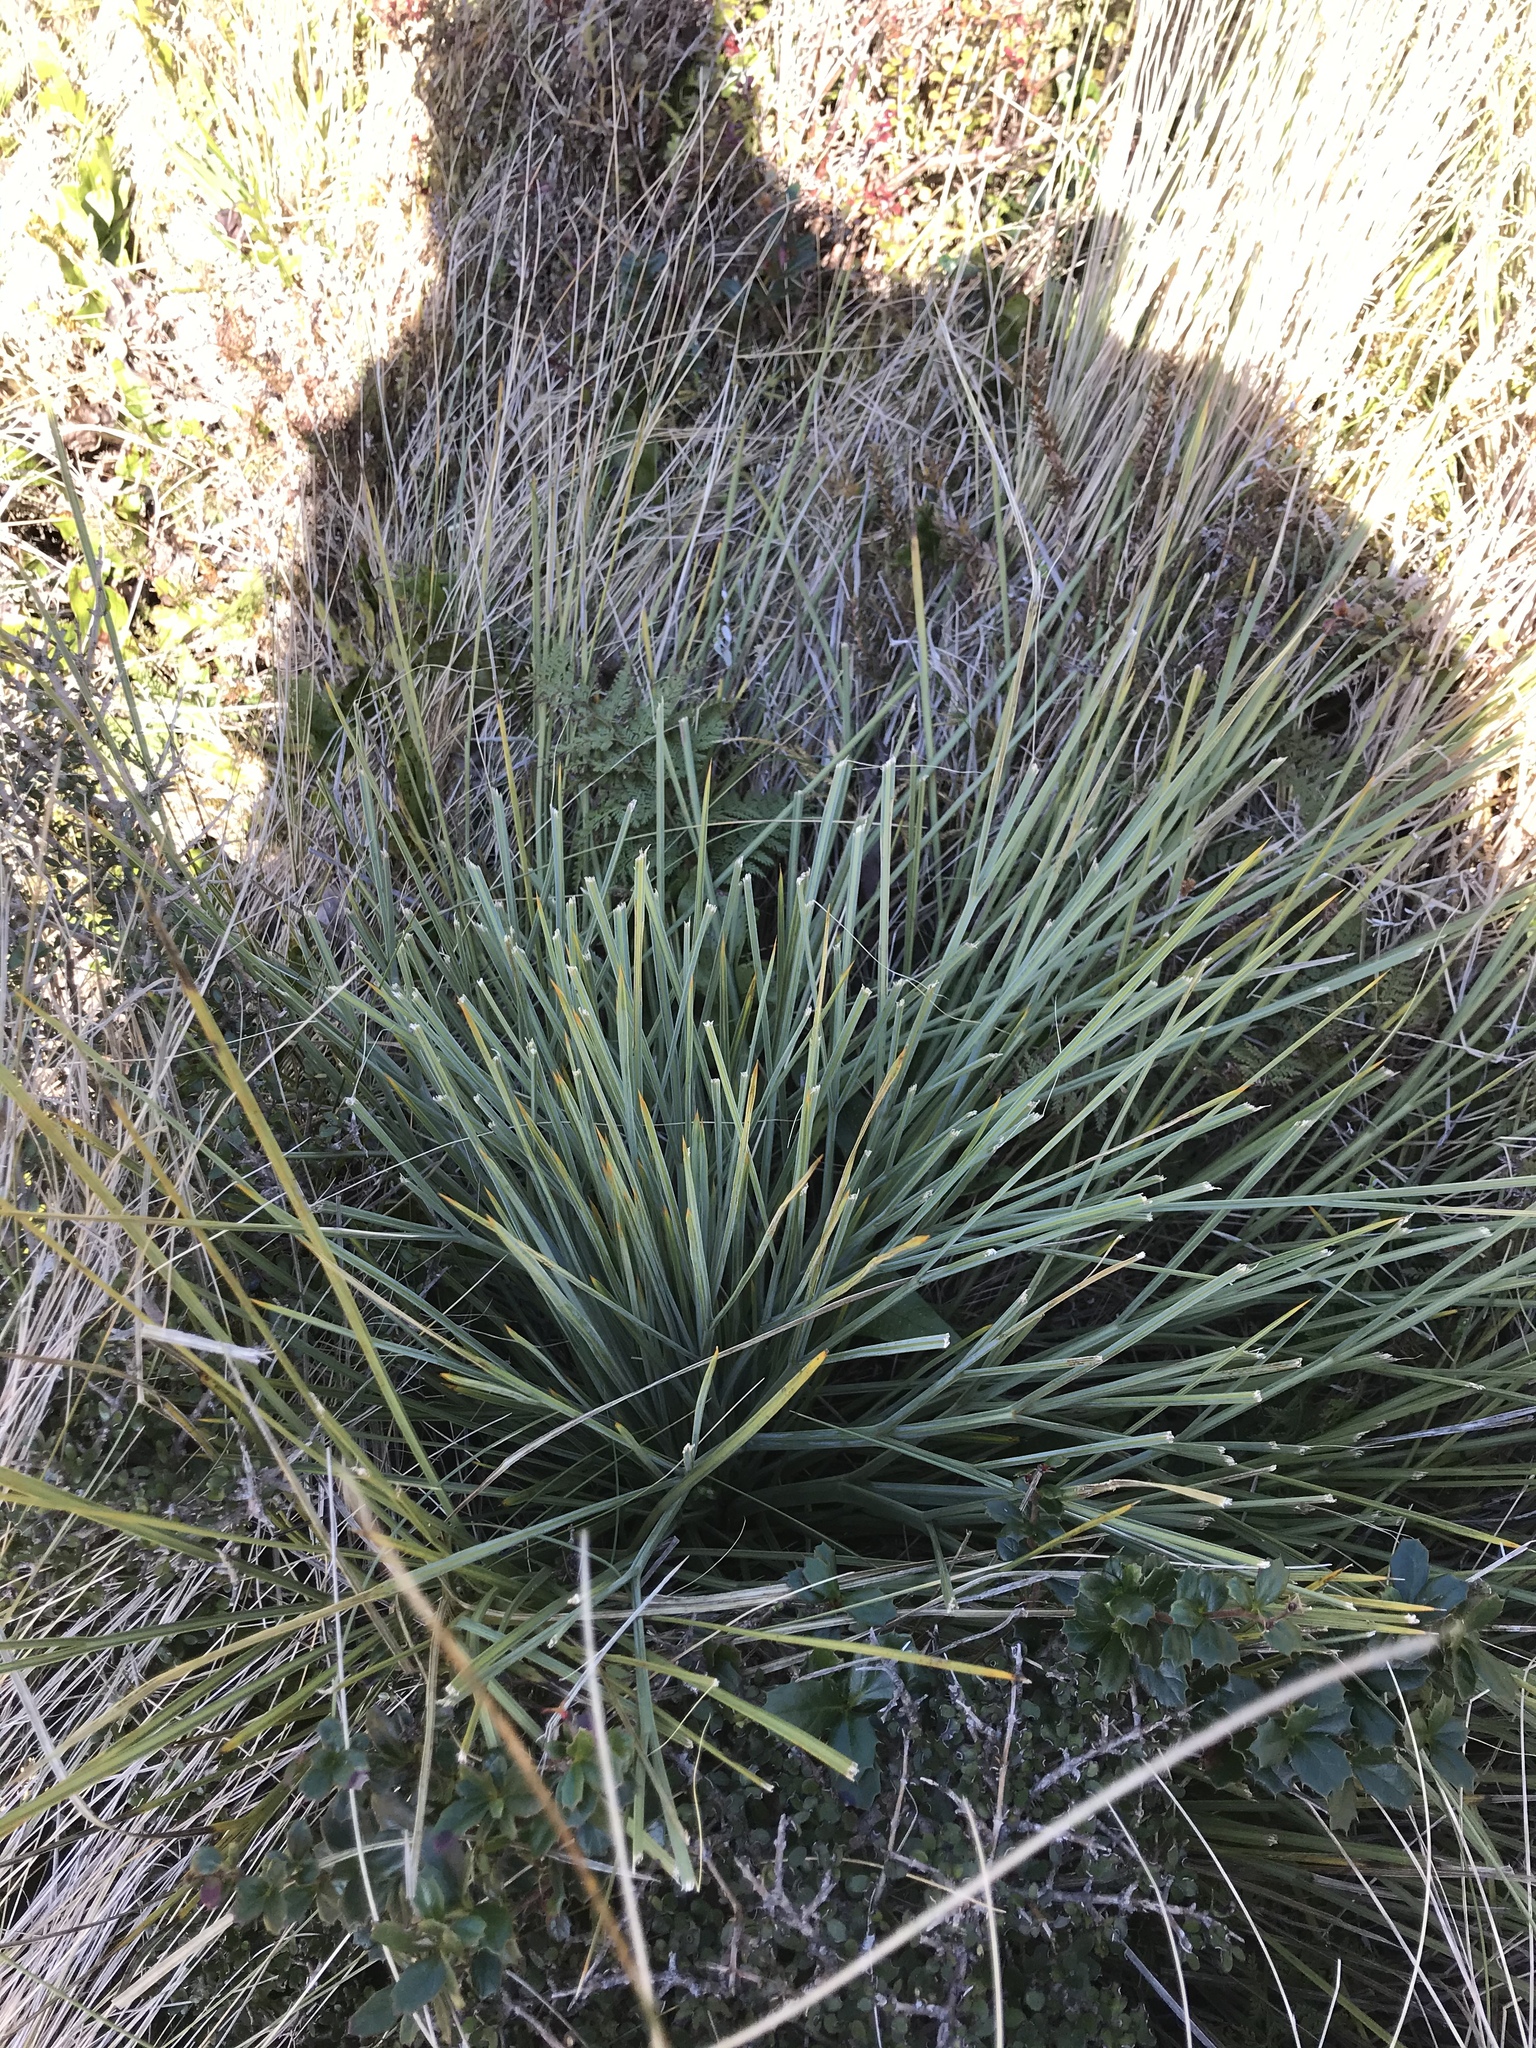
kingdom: Plantae
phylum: Tracheophyta
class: Magnoliopsida
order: Apiales
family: Apiaceae
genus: Aciphylla
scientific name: Aciphylla squarrosa
